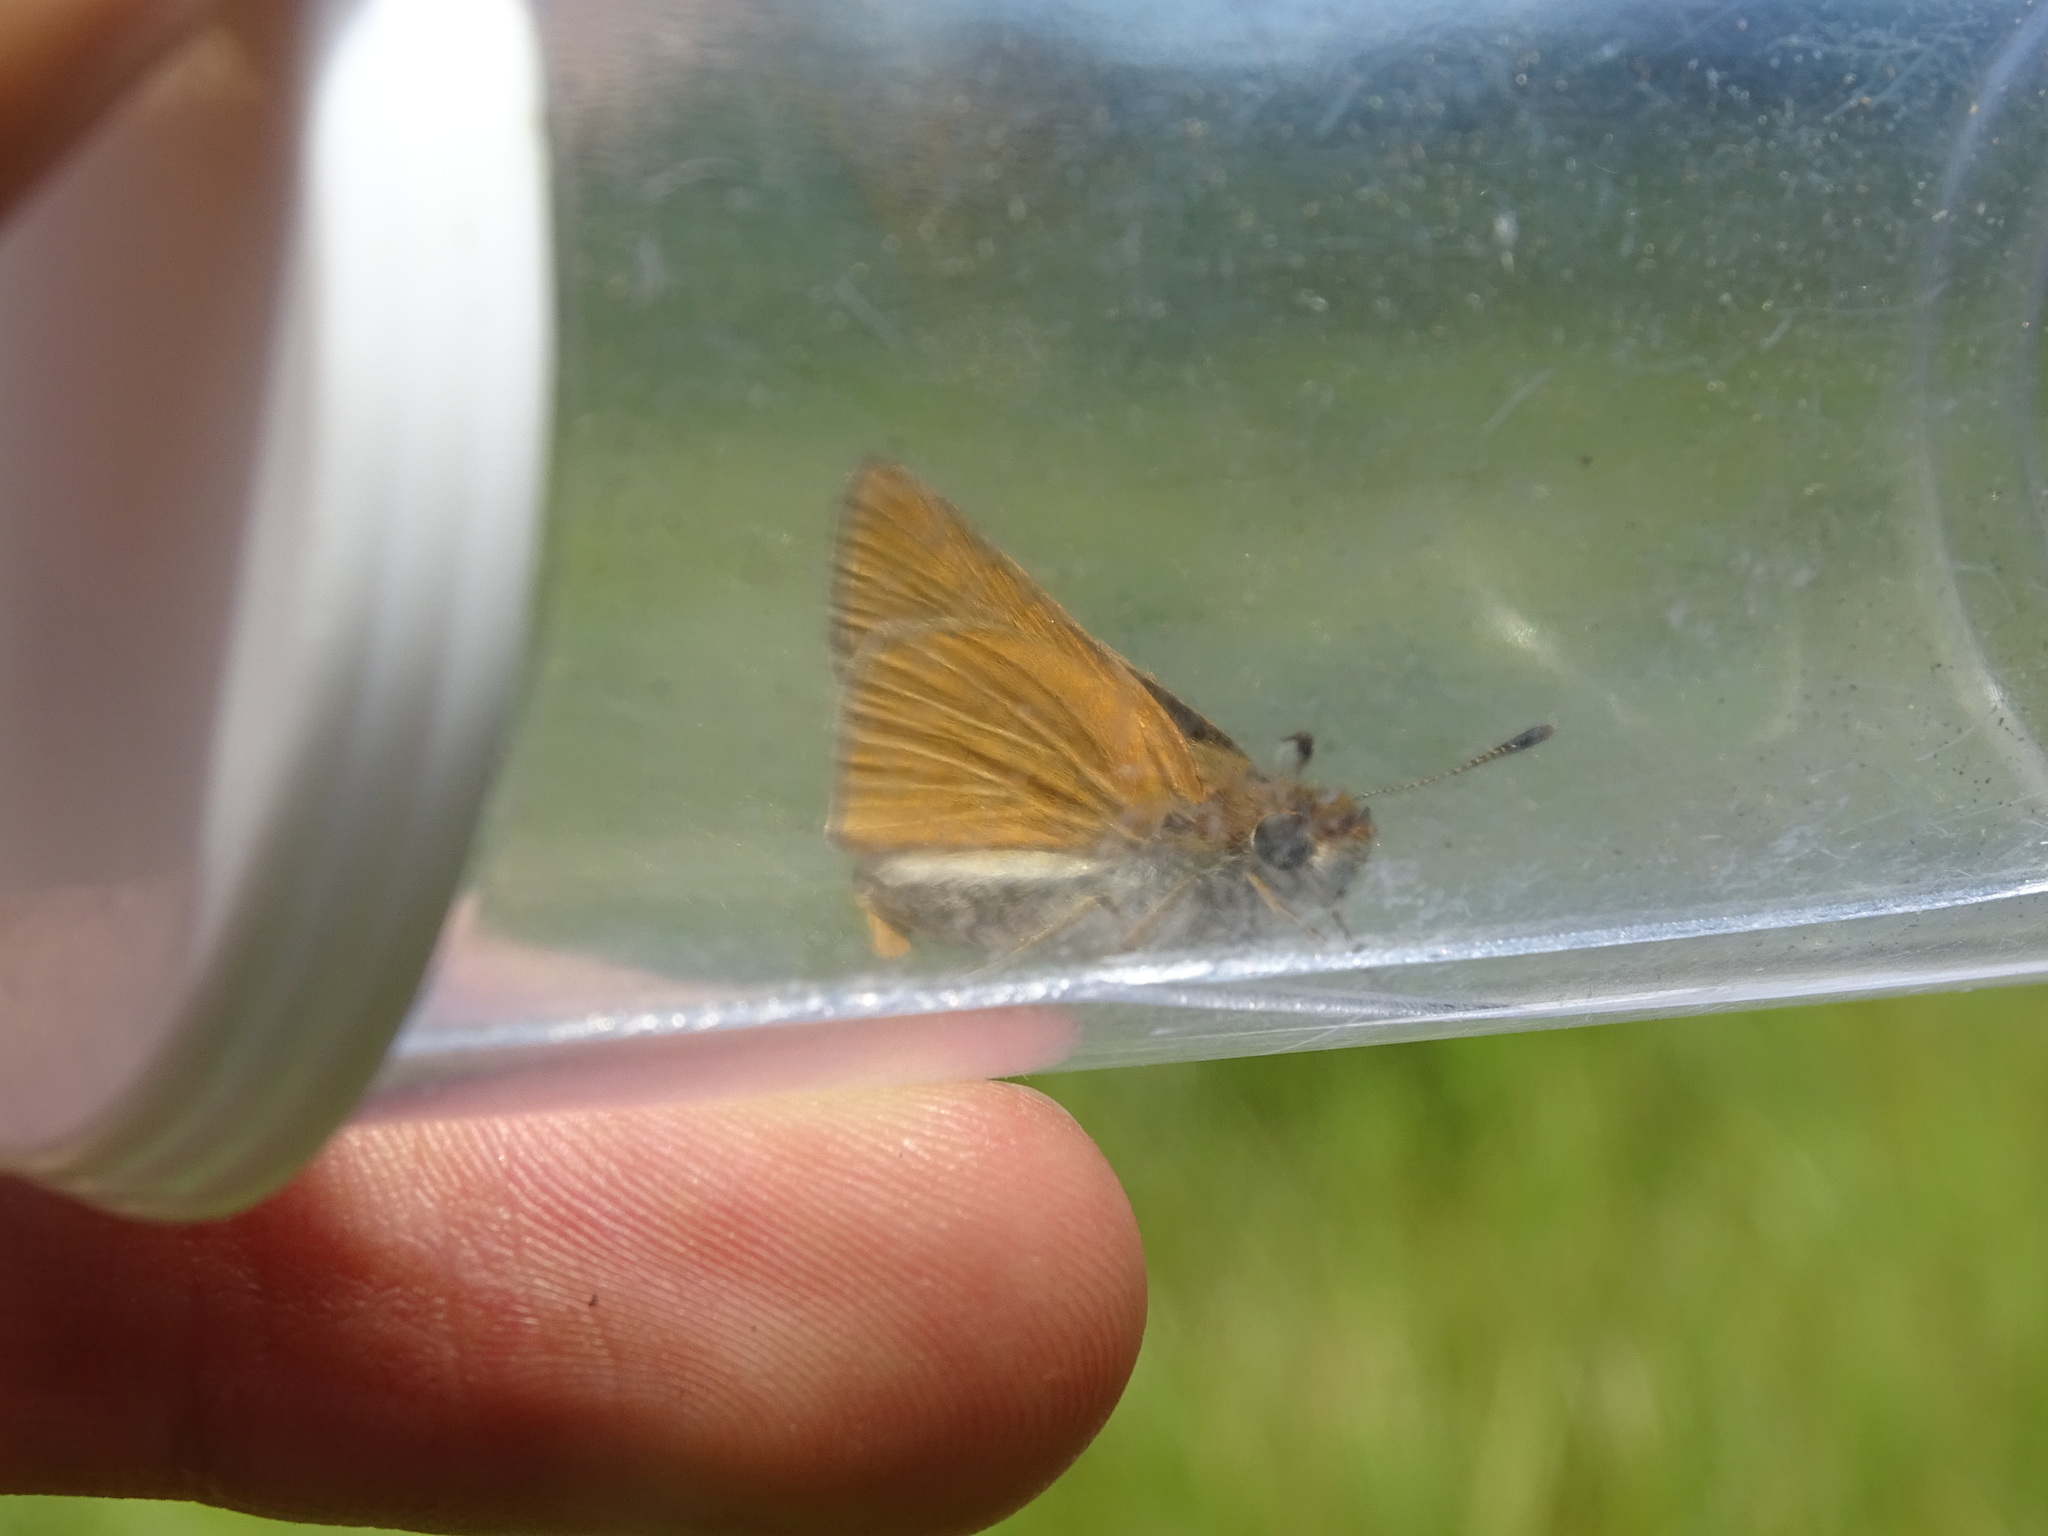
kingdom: Animalia
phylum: Arthropoda
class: Insecta
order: Lepidoptera
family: Hesperiidae
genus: Euphyes
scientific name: Euphyes bimacula
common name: Two-spotted skipper
